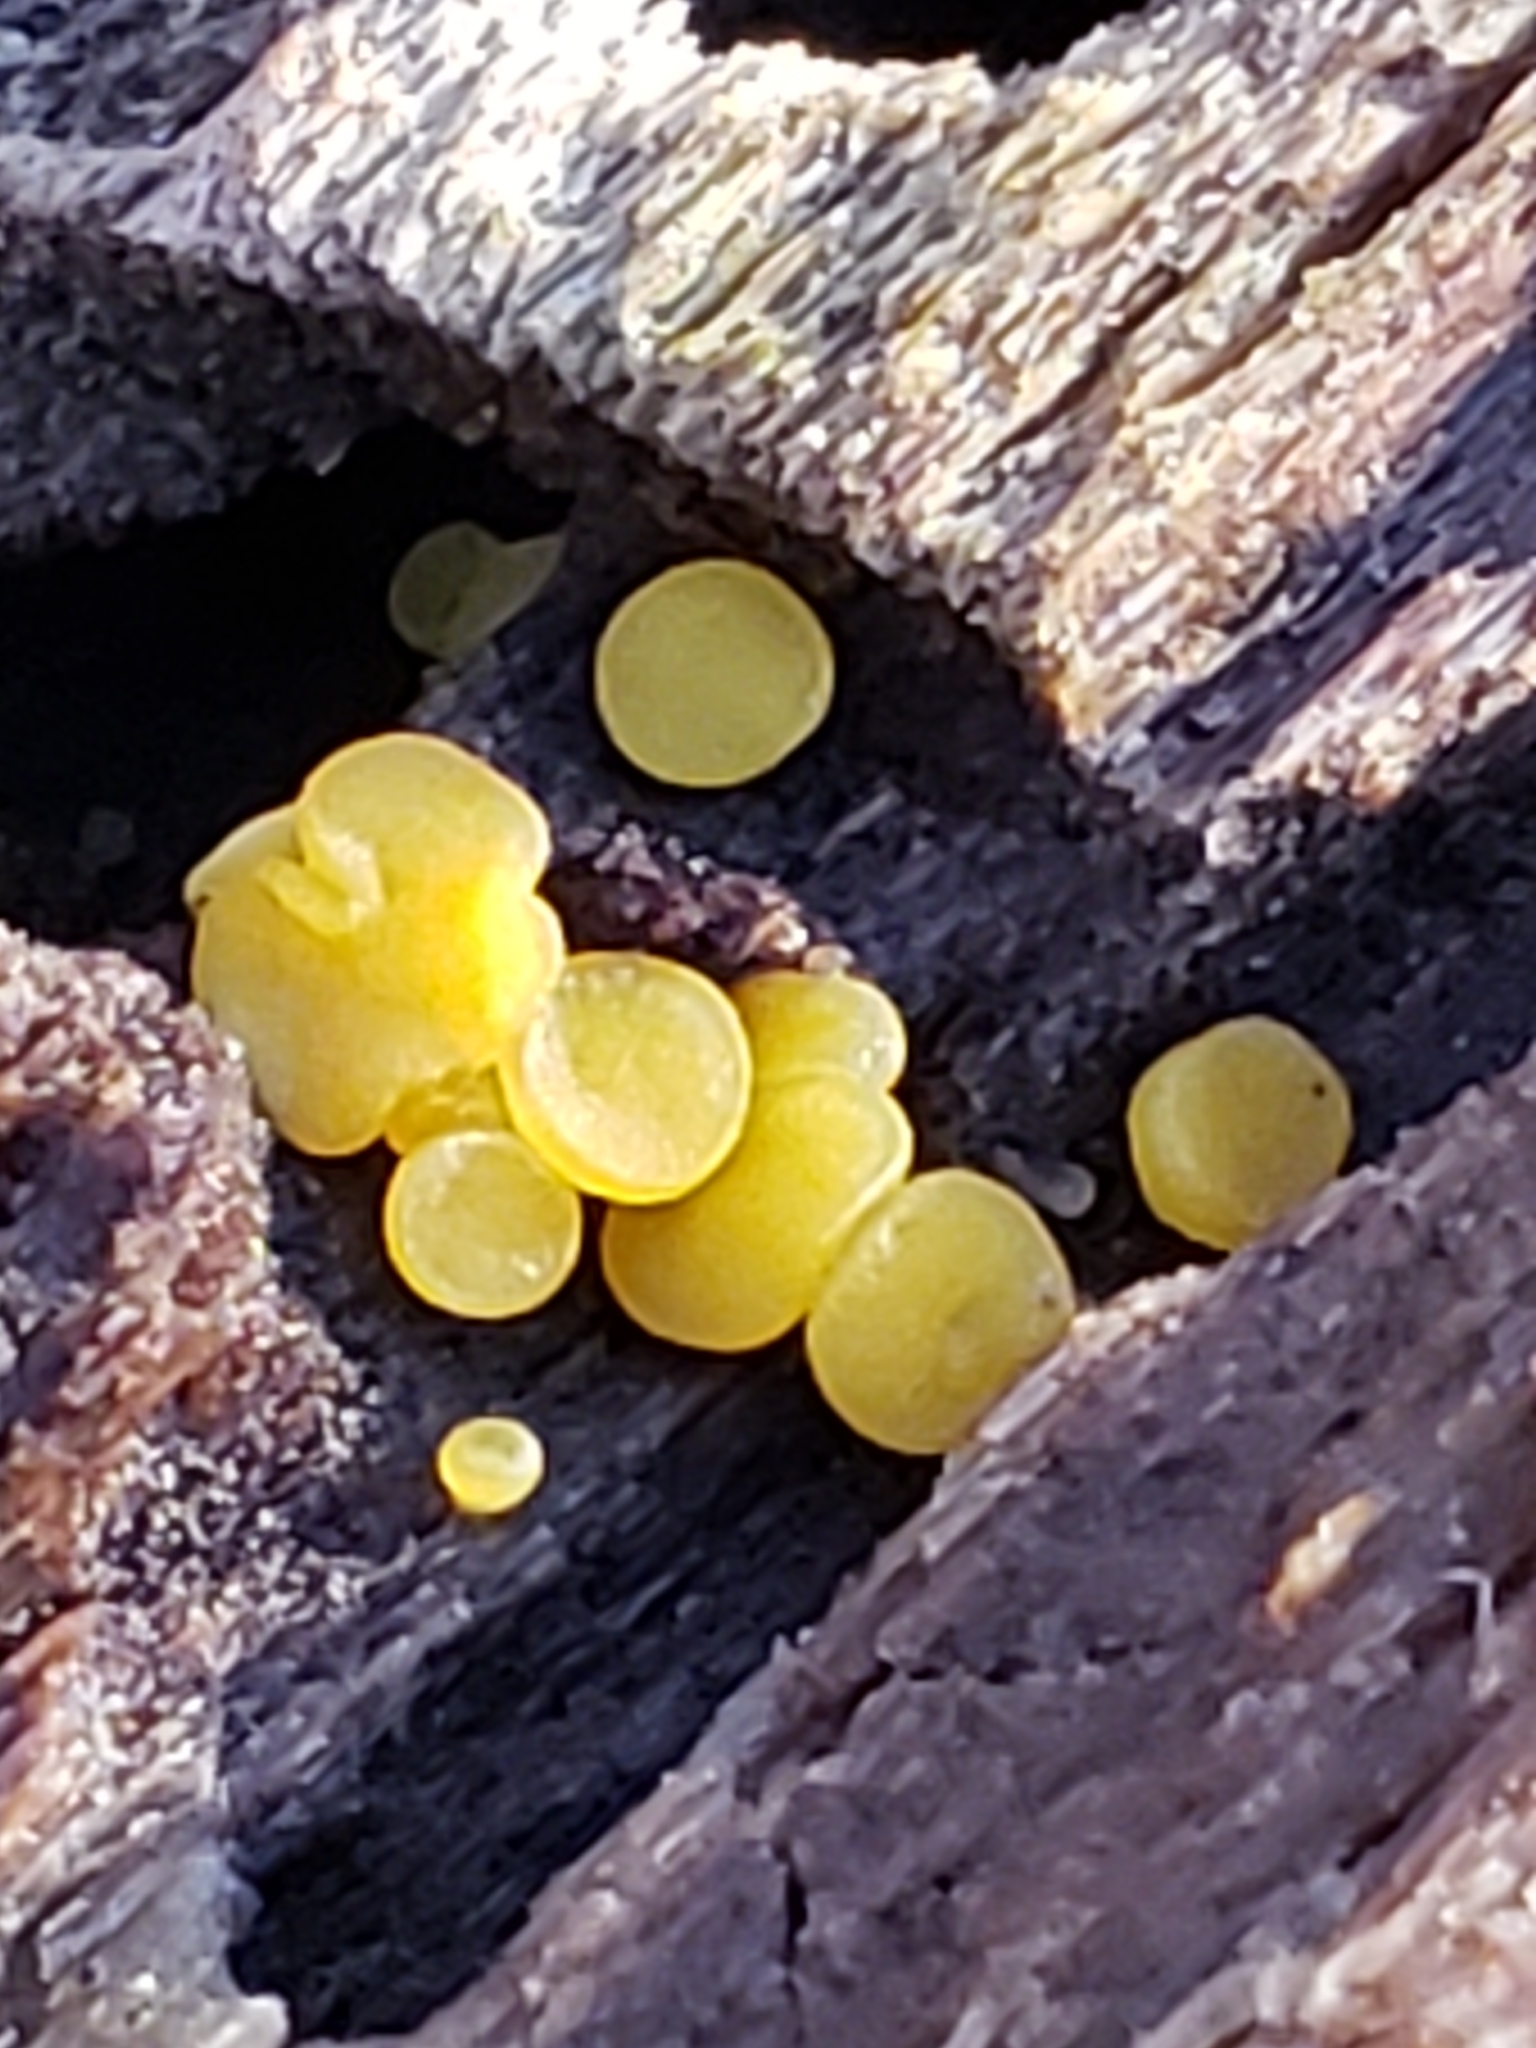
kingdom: Fungi
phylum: Ascomycota
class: Leotiomycetes
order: Helotiales
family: Pezizellaceae
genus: Calycina
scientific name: Calycina citrina
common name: Yellow fairy cups
